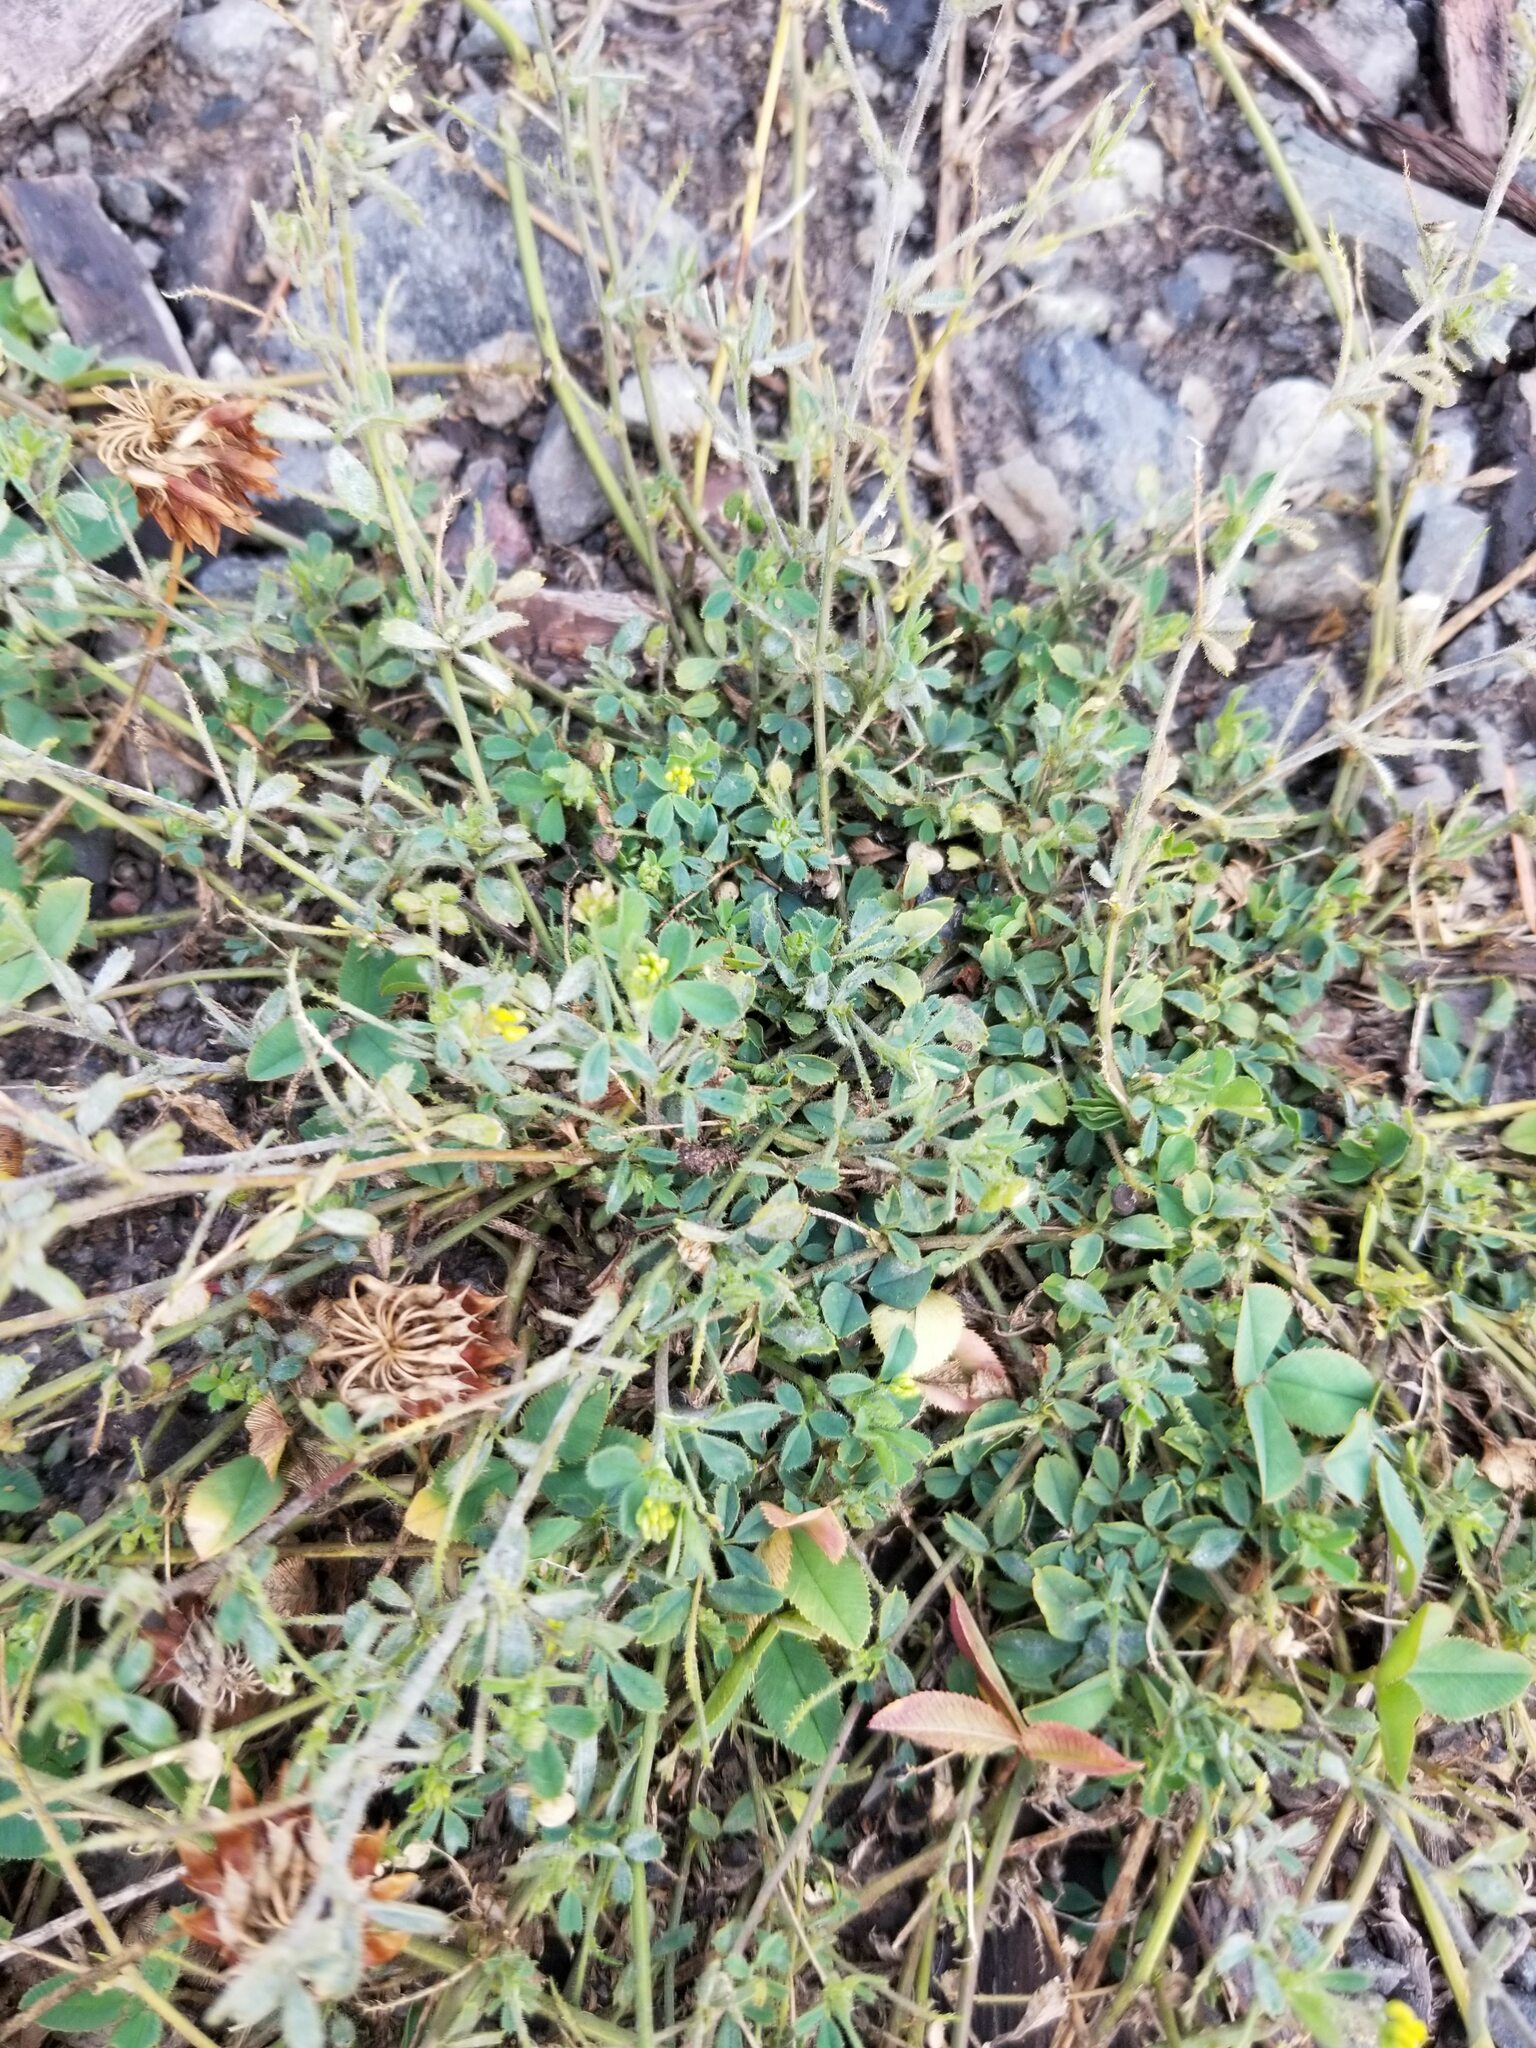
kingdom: Plantae
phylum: Tracheophyta
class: Magnoliopsida
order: Fabales
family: Fabaceae
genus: Medicago
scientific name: Medicago lupulina
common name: Black medick
